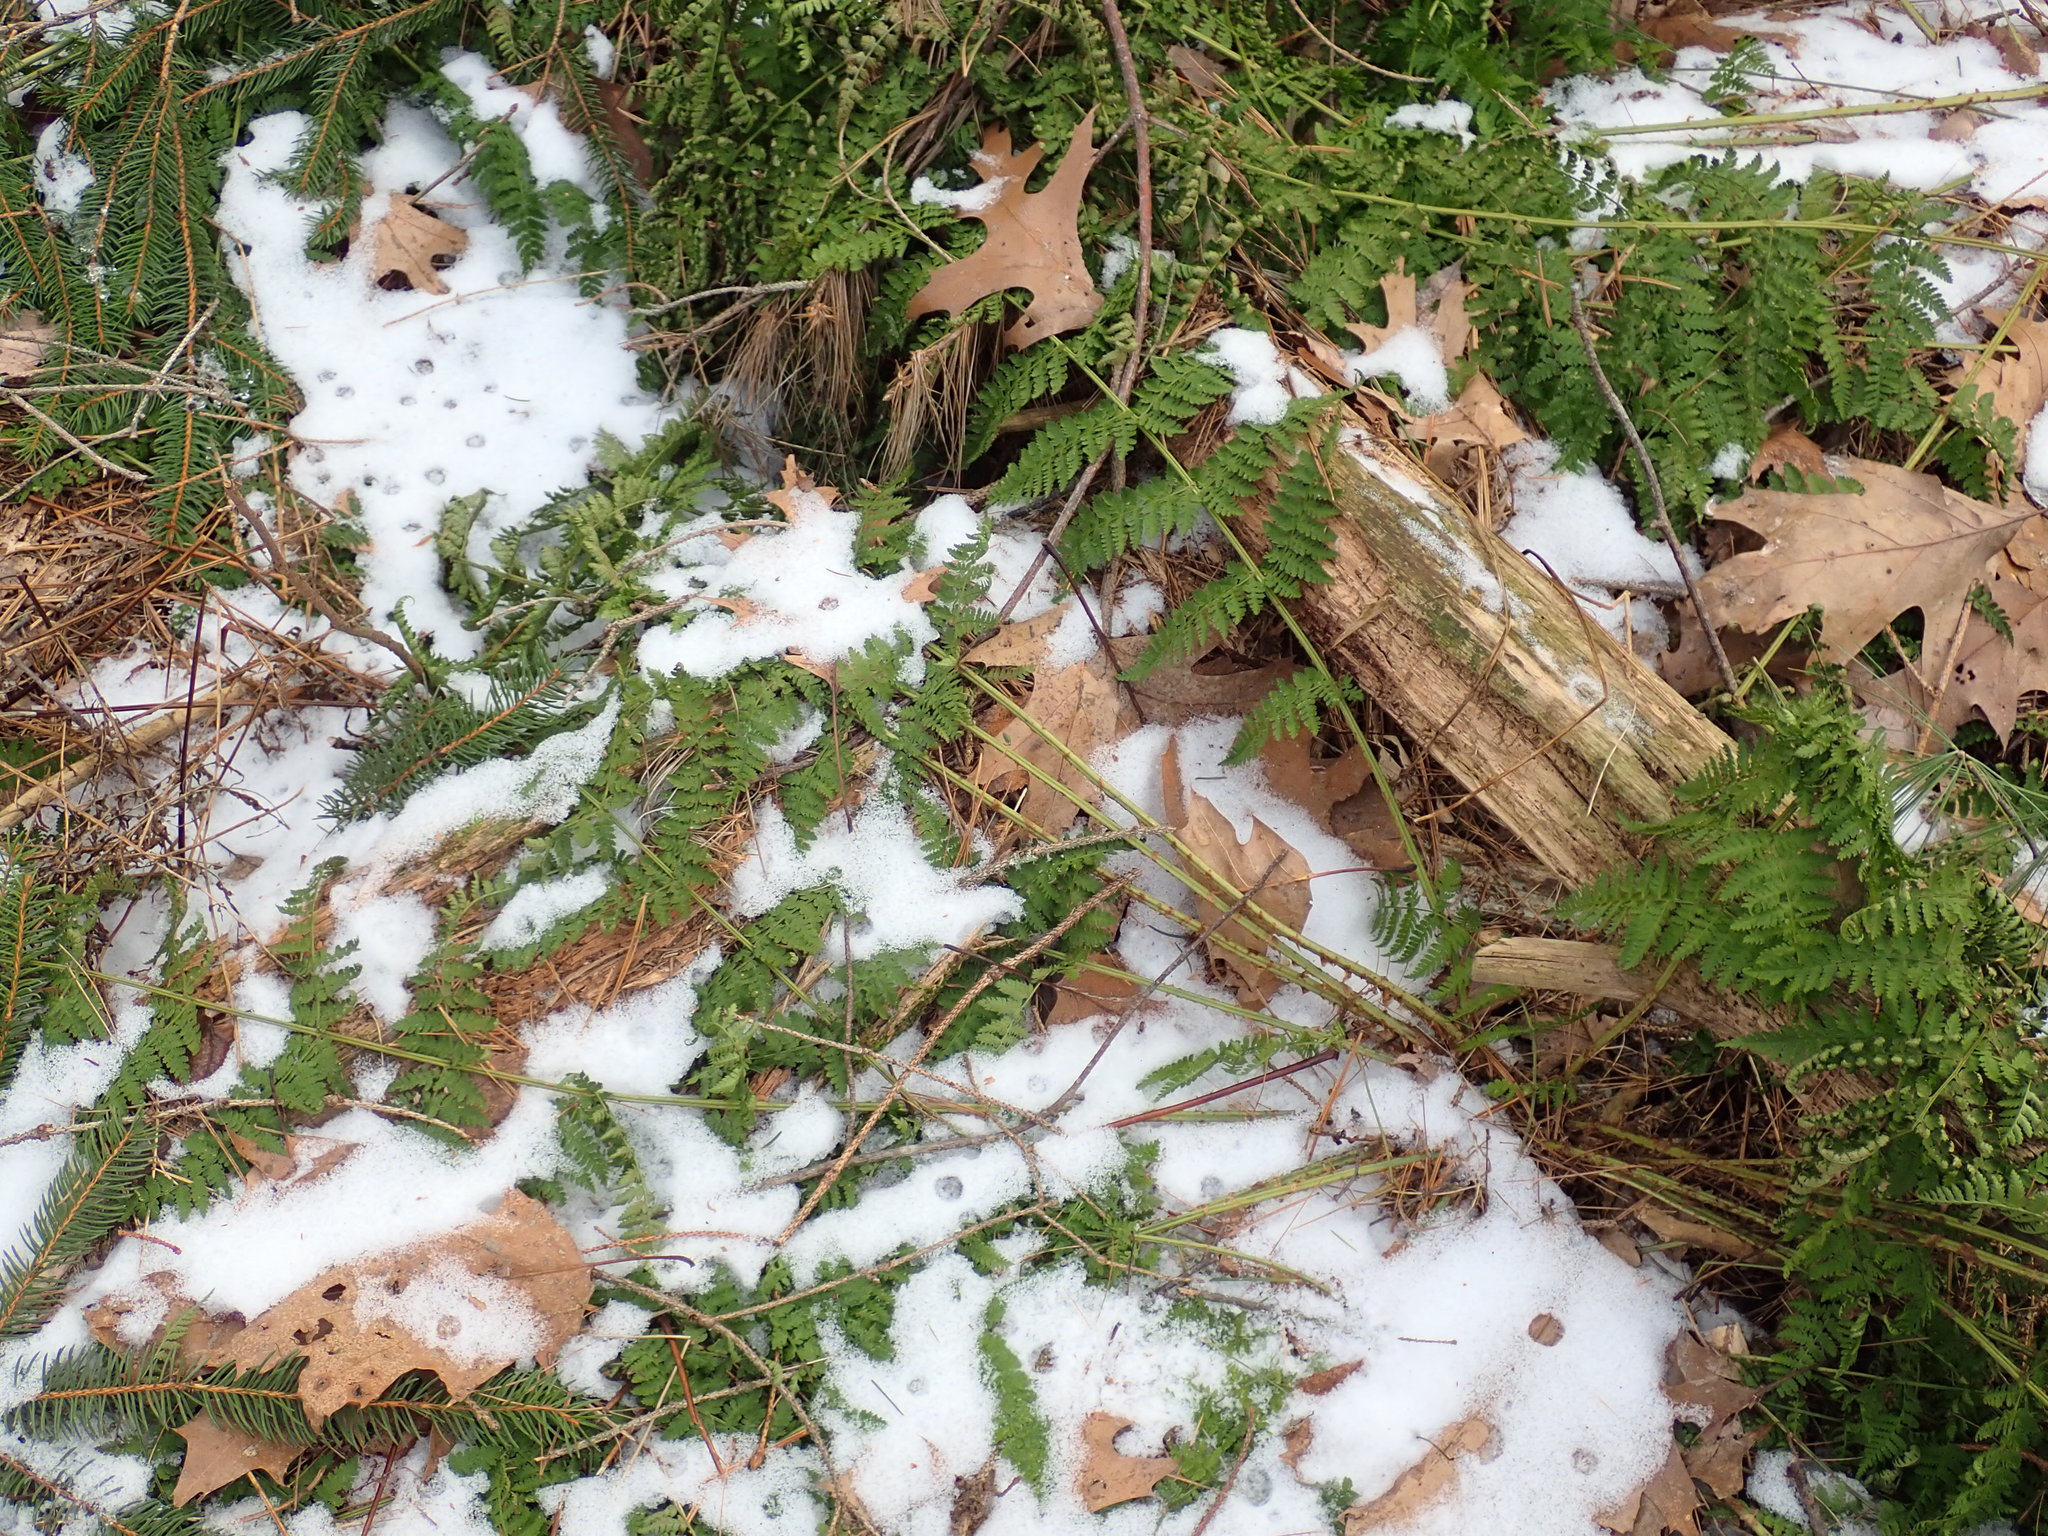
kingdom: Plantae
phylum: Tracheophyta
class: Polypodiopsida
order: Polypodiales
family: Dryopteridaceae
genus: Dryopteris
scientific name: Dryopteris intermedia
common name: Evergreen wood fern
